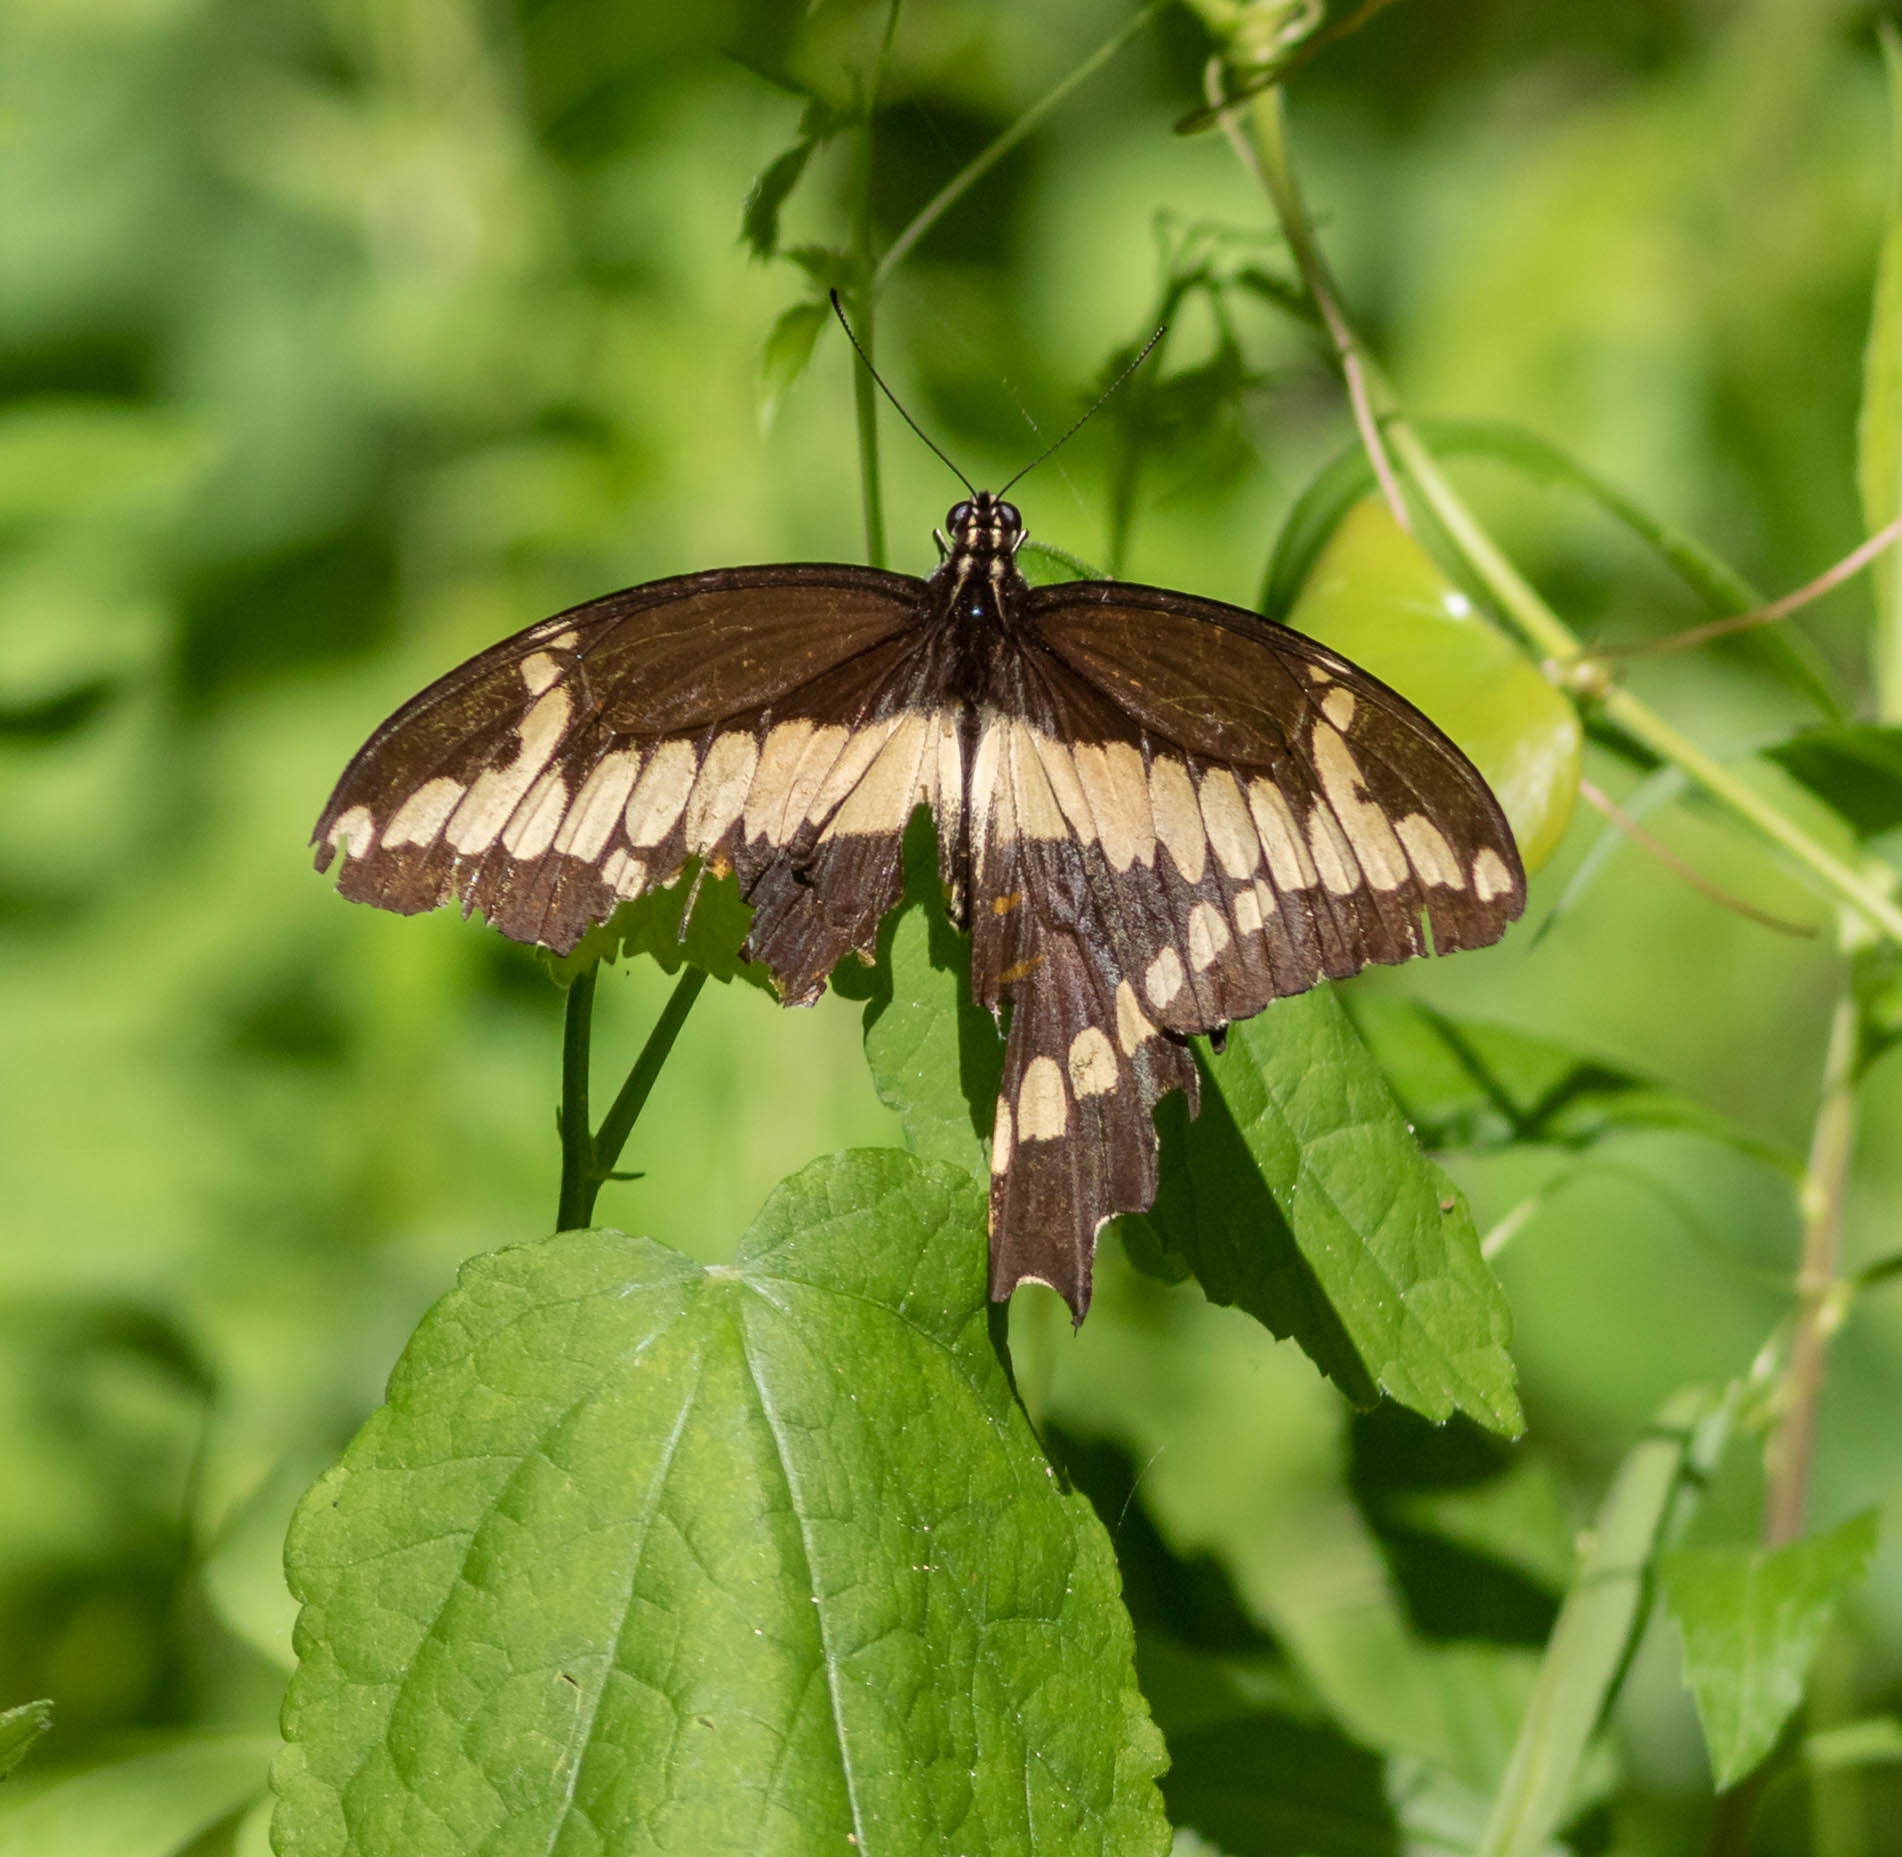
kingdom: Animalia
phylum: Arthropoda
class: Insecta
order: Lepidoptera
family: Papilionidae
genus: Papilio
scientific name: Papilio cresphontes
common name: Giant swallowtail
